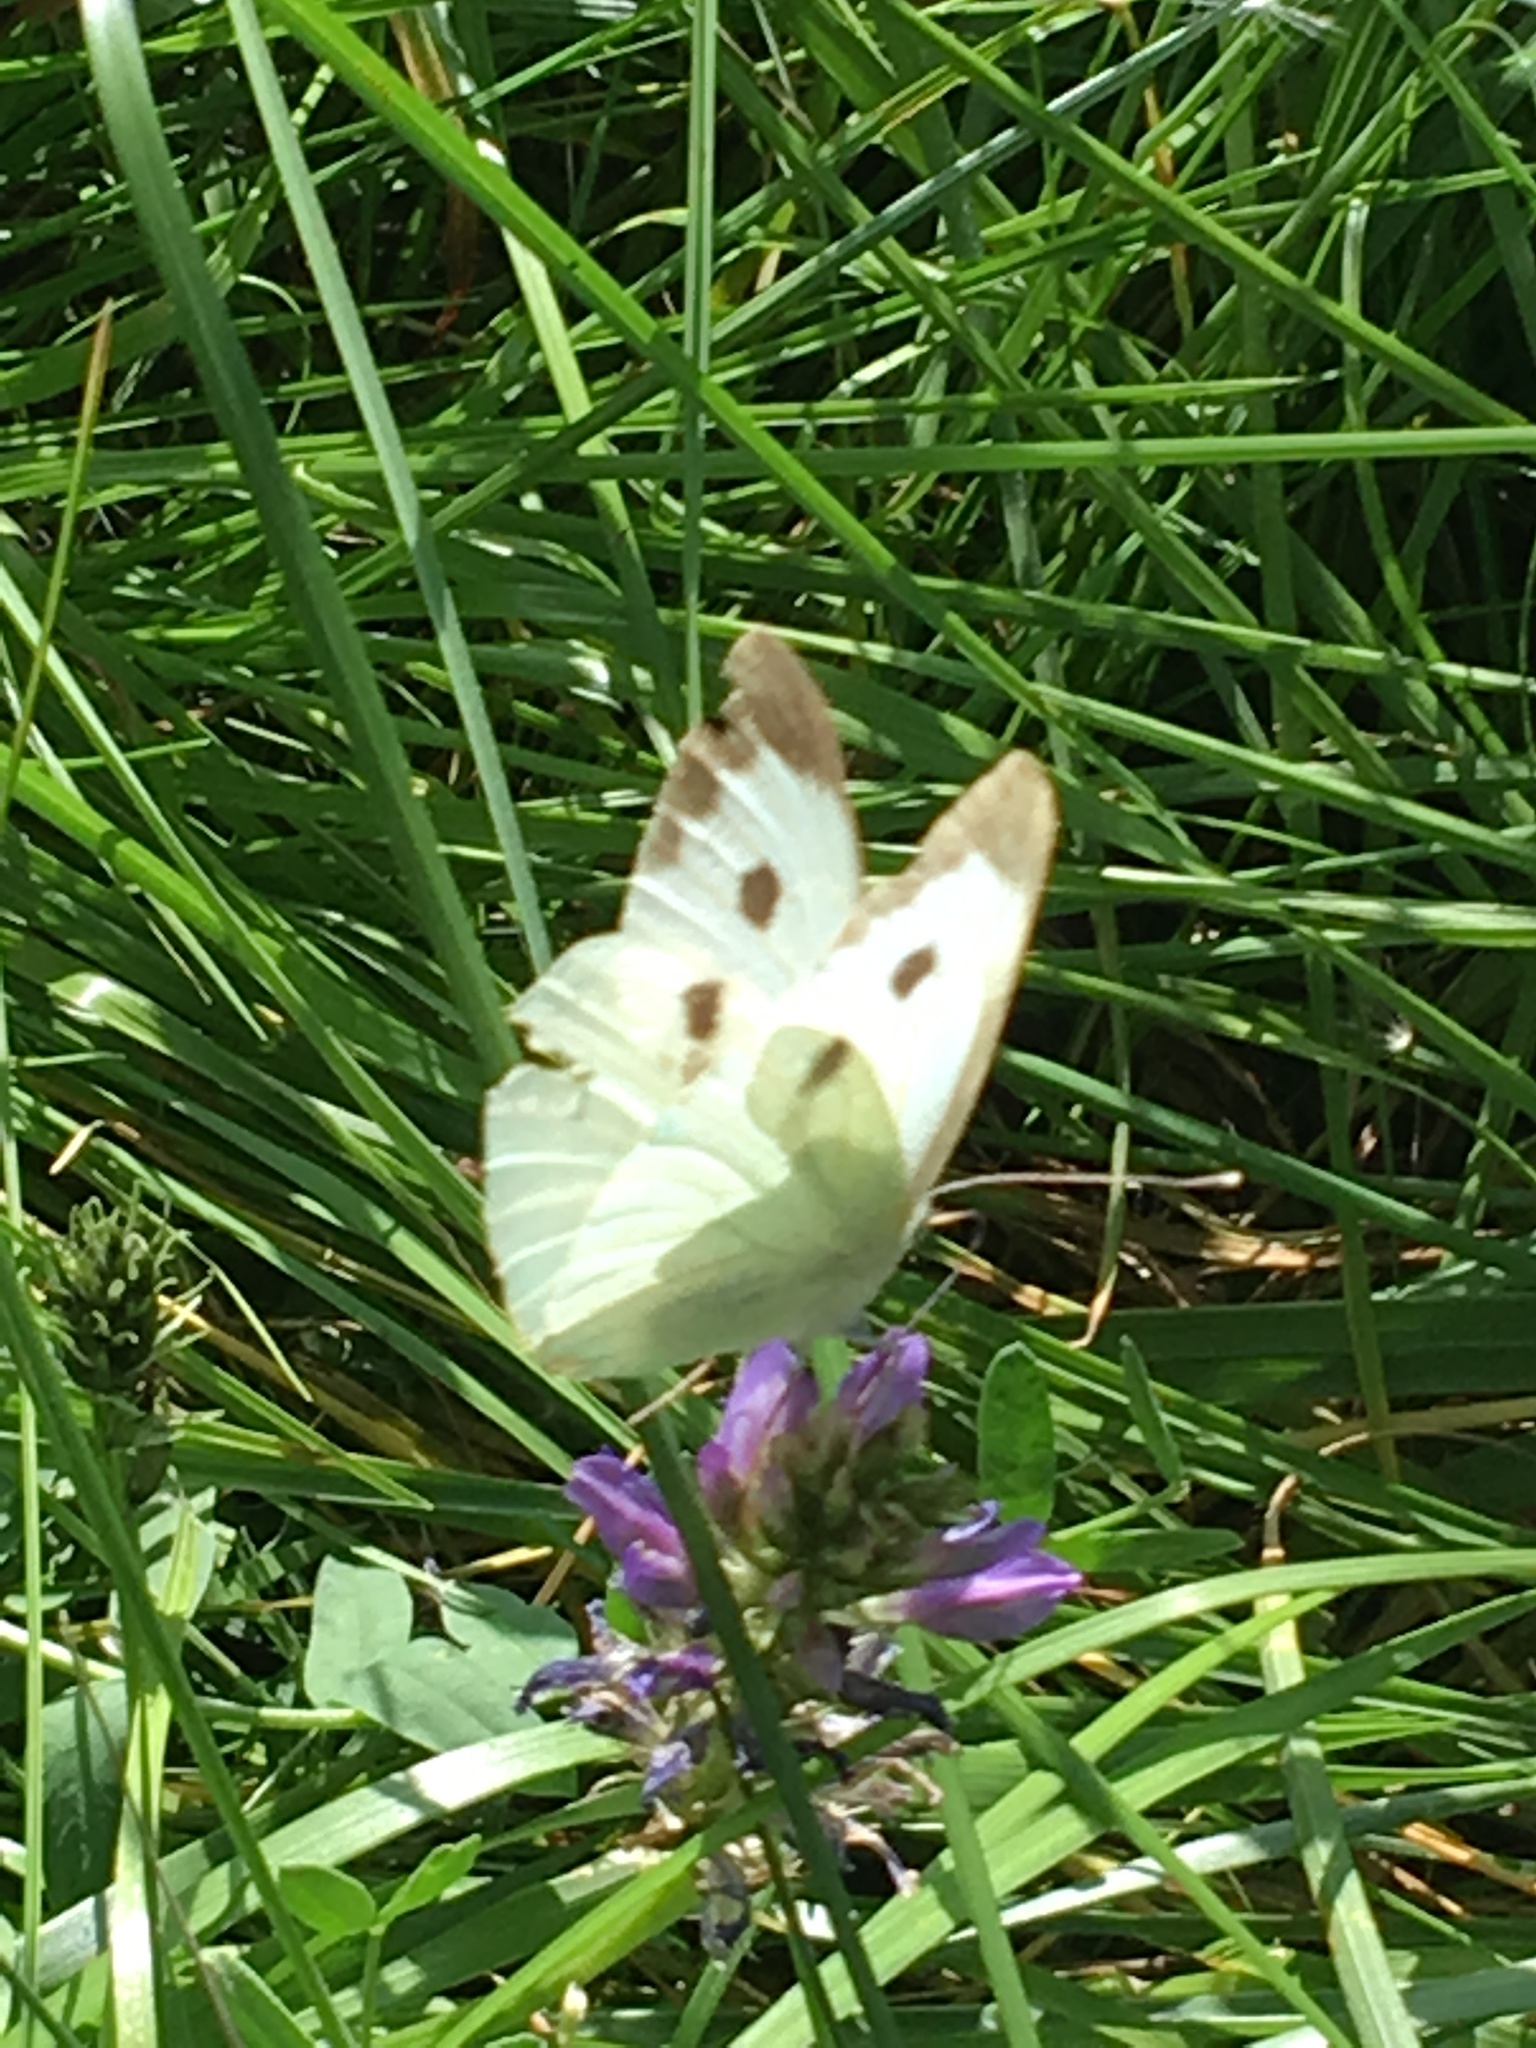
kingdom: Animalia
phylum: Arthropoda
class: Insecta
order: Lepidoptera
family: Pieridae
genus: Pieris
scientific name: Pieris brassicae
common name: Large white
